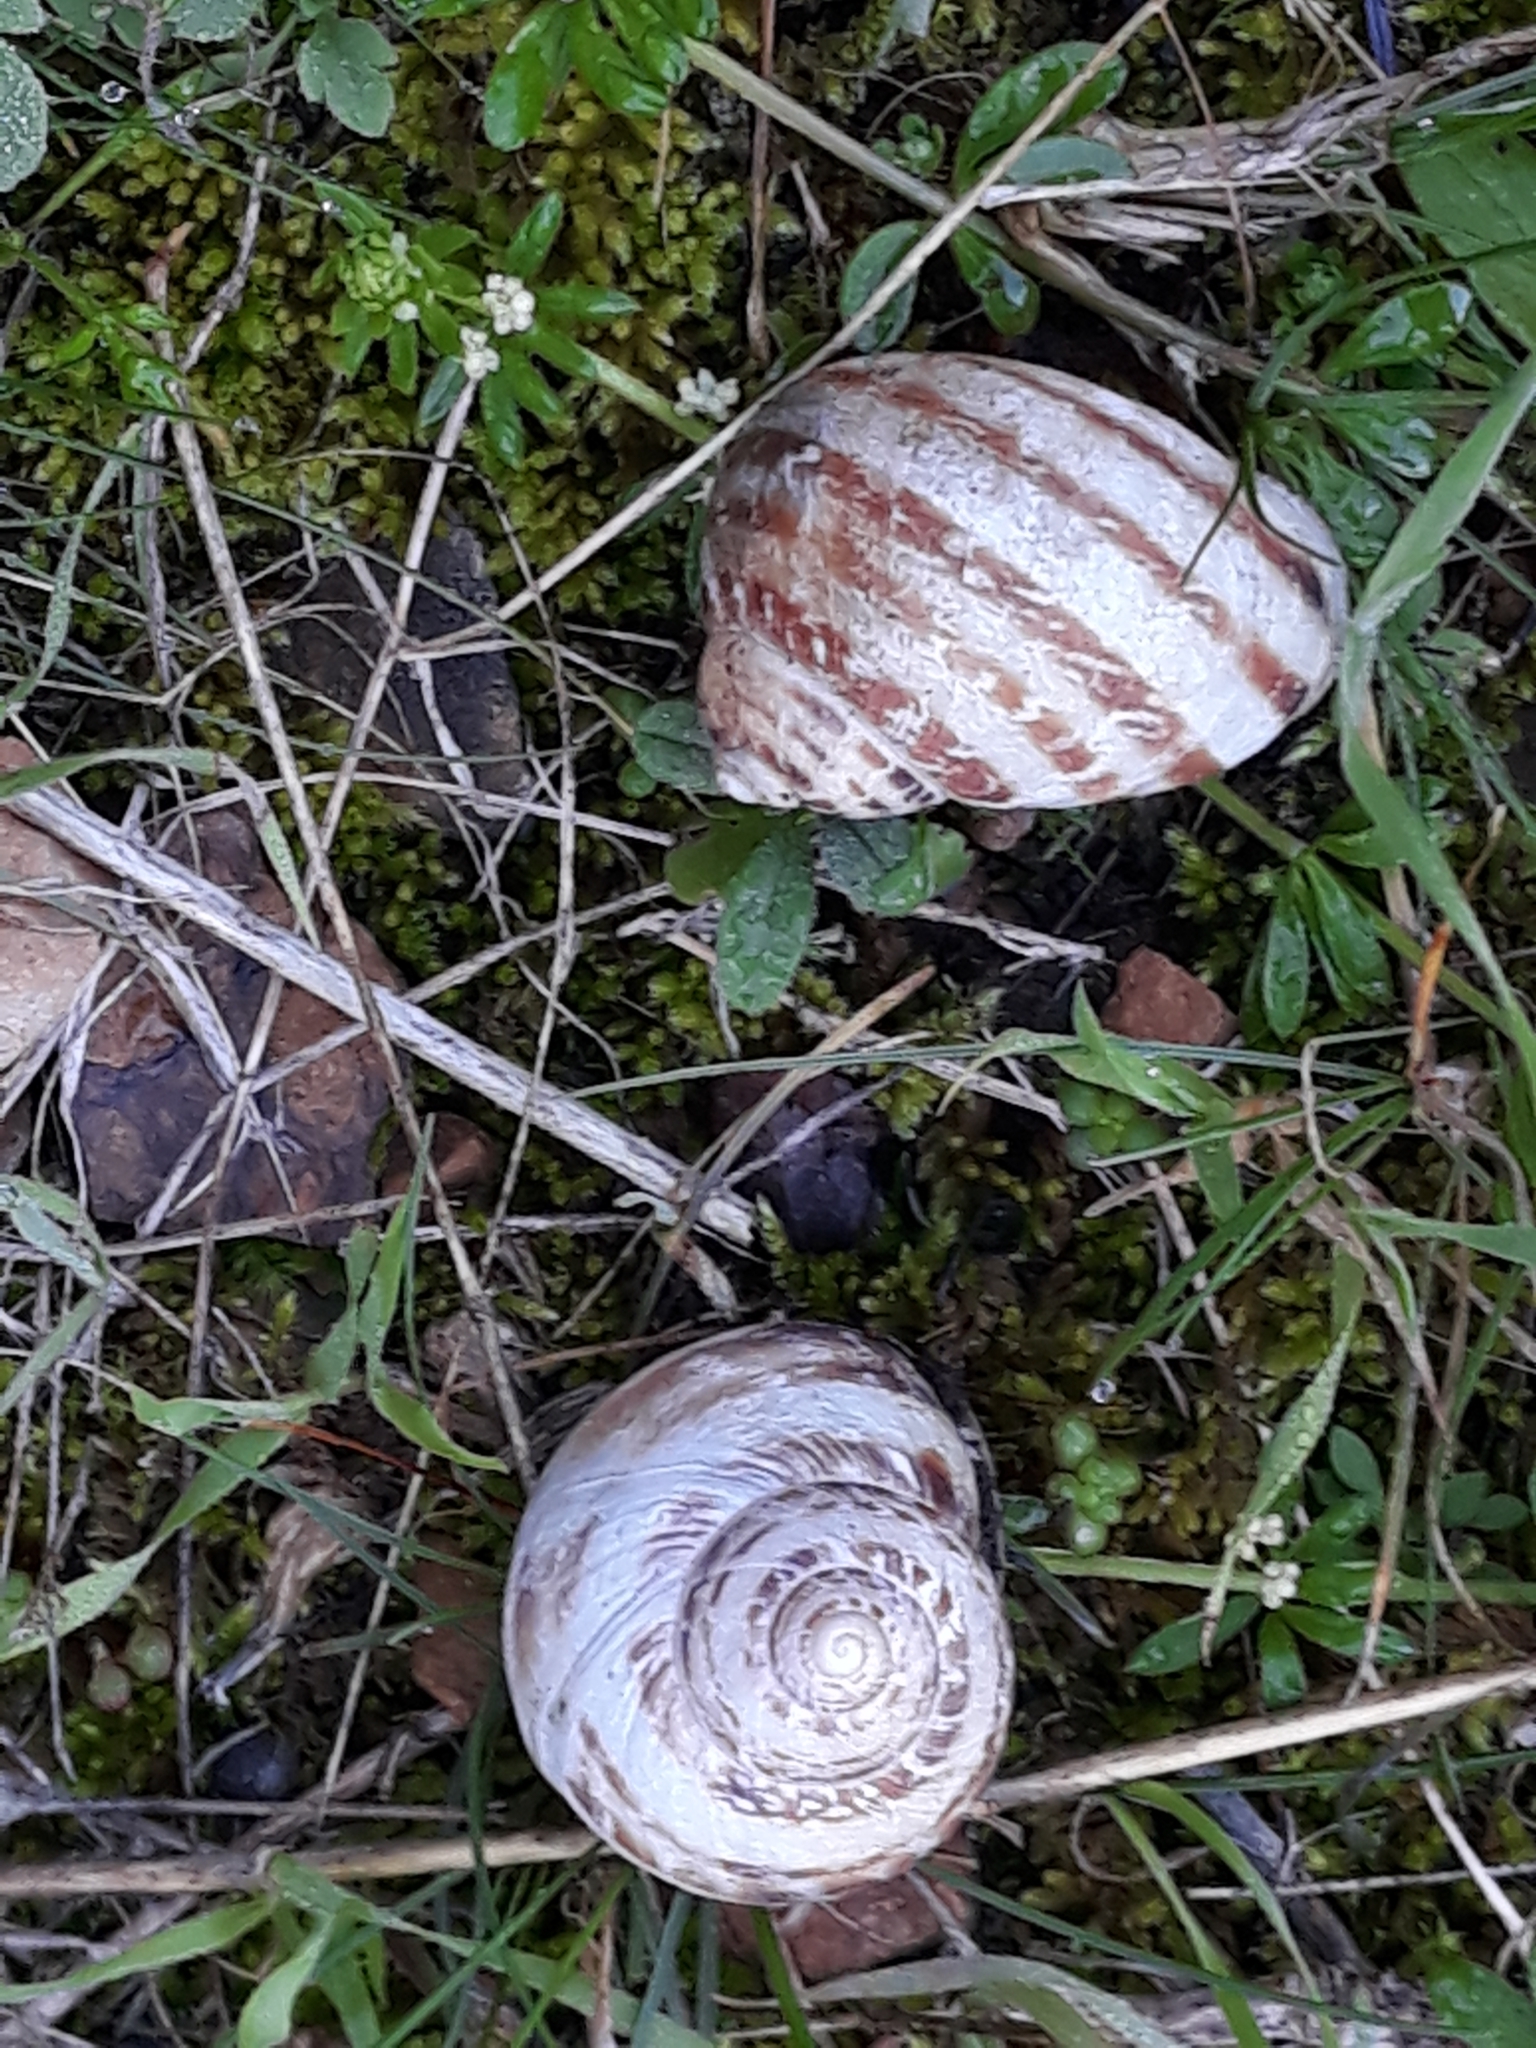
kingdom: Animalia
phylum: Mollusca
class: Gastropoda
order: Stylommatophora
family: Helicidae
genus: Cornu
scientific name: Cornu aspersum
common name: Brown garden snail
